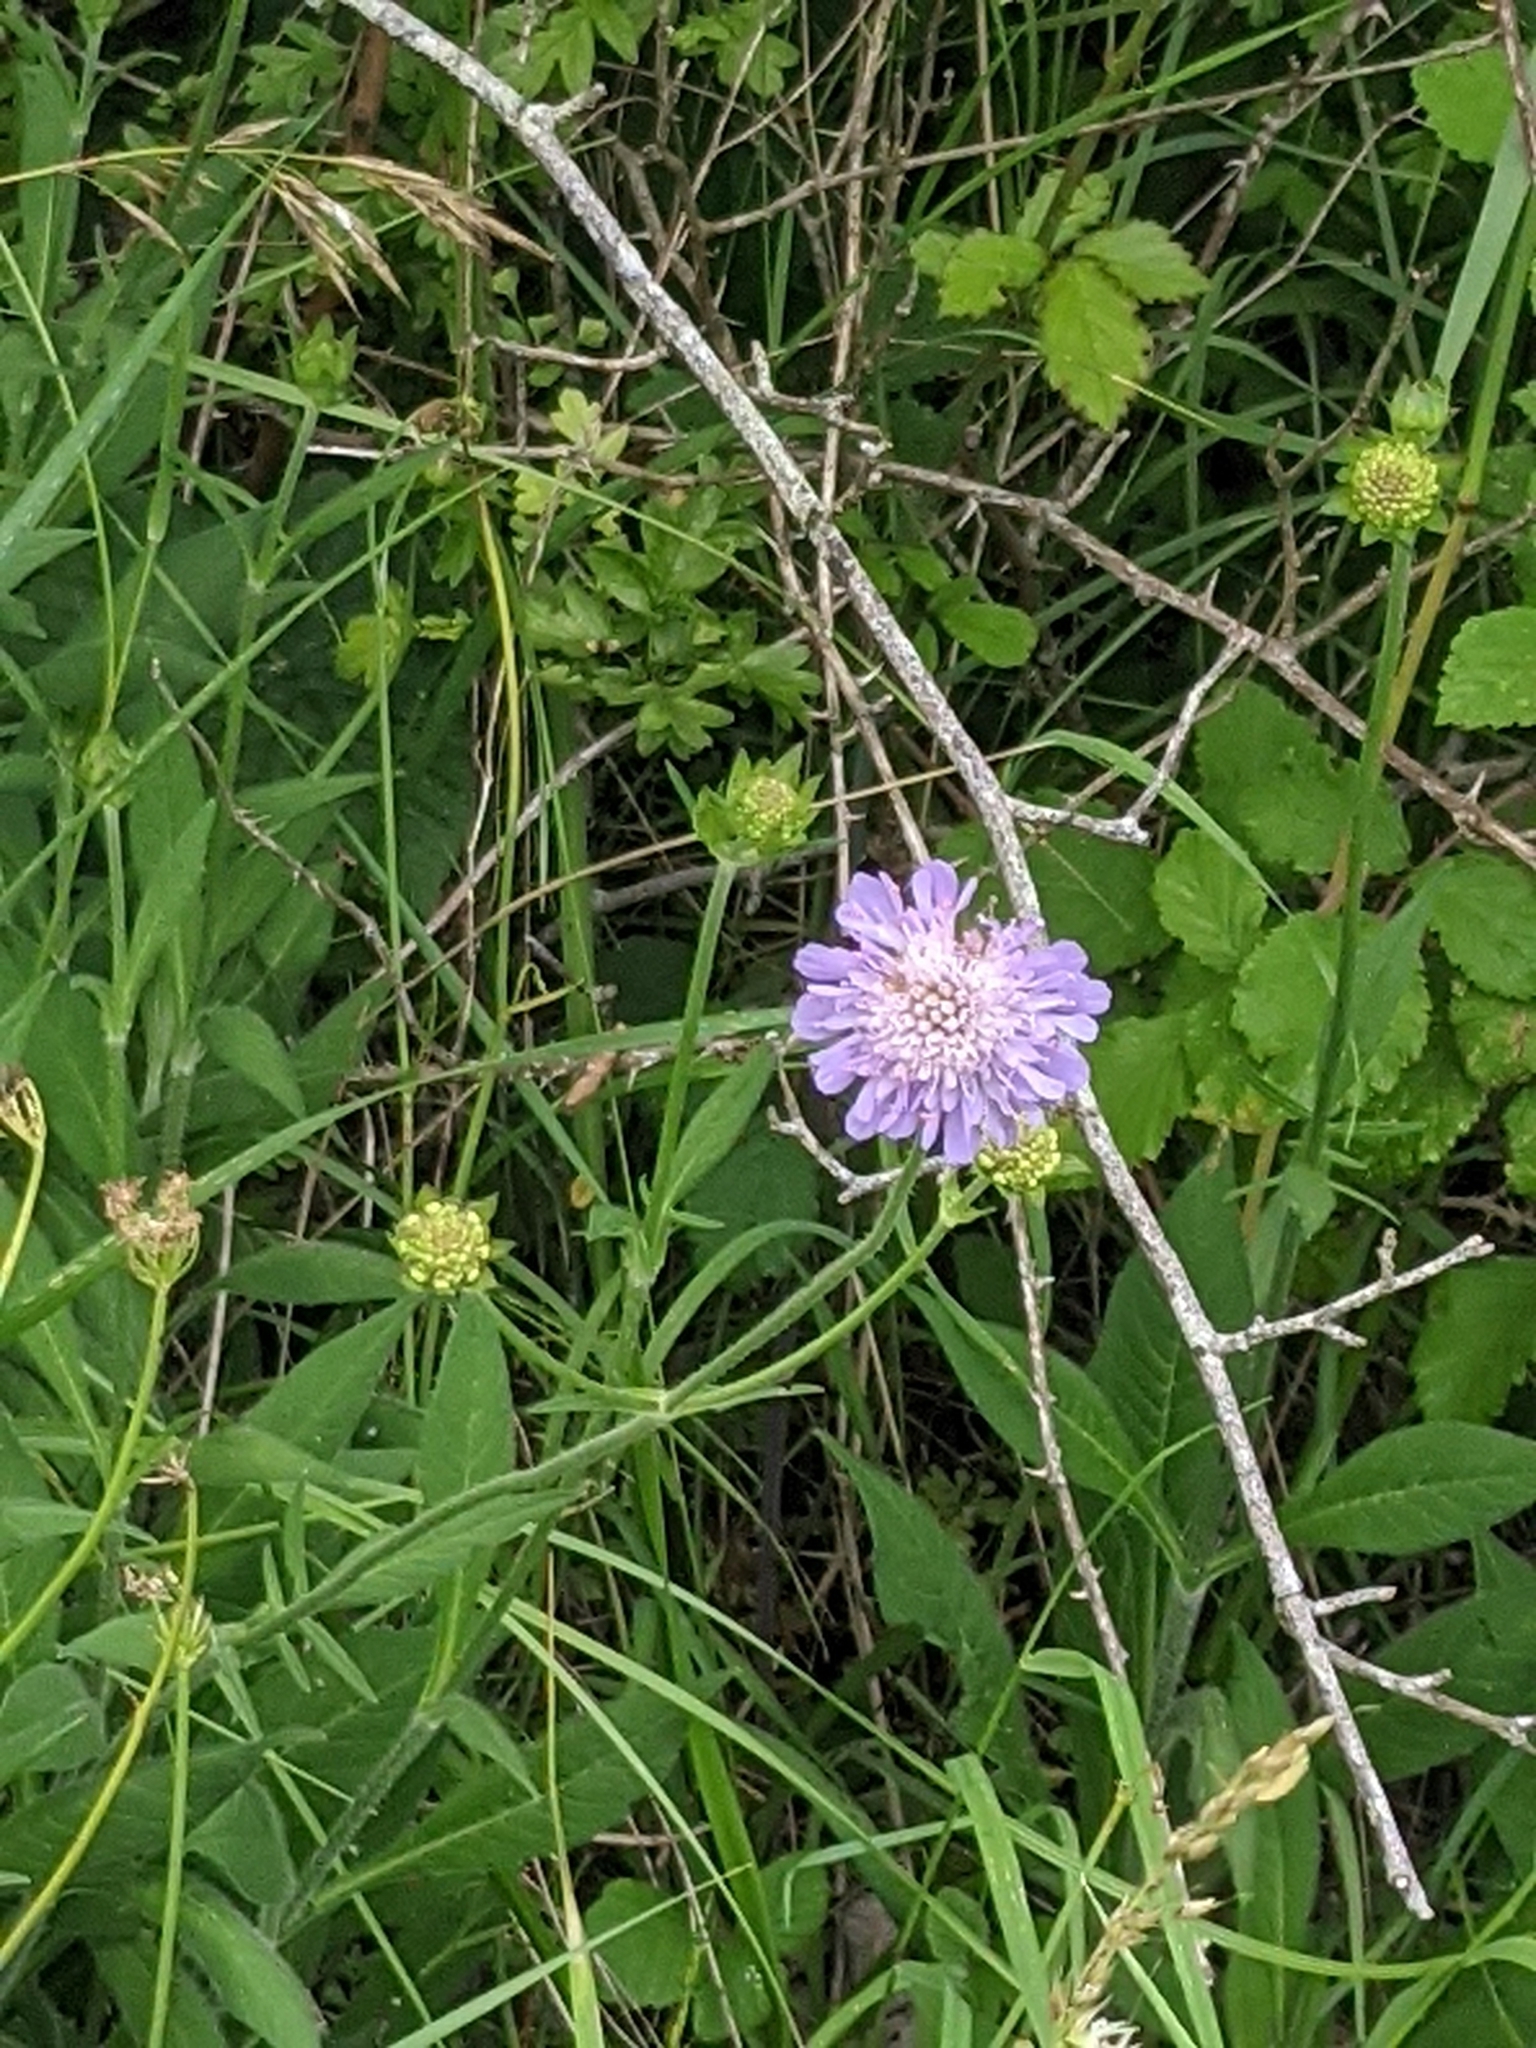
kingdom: Plantae
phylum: Tracheophyta
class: Magnoliopsida
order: Dipsacales
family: Caprifoliaceae
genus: Knautia
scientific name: Knautia arvensis
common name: Field scabiosa
